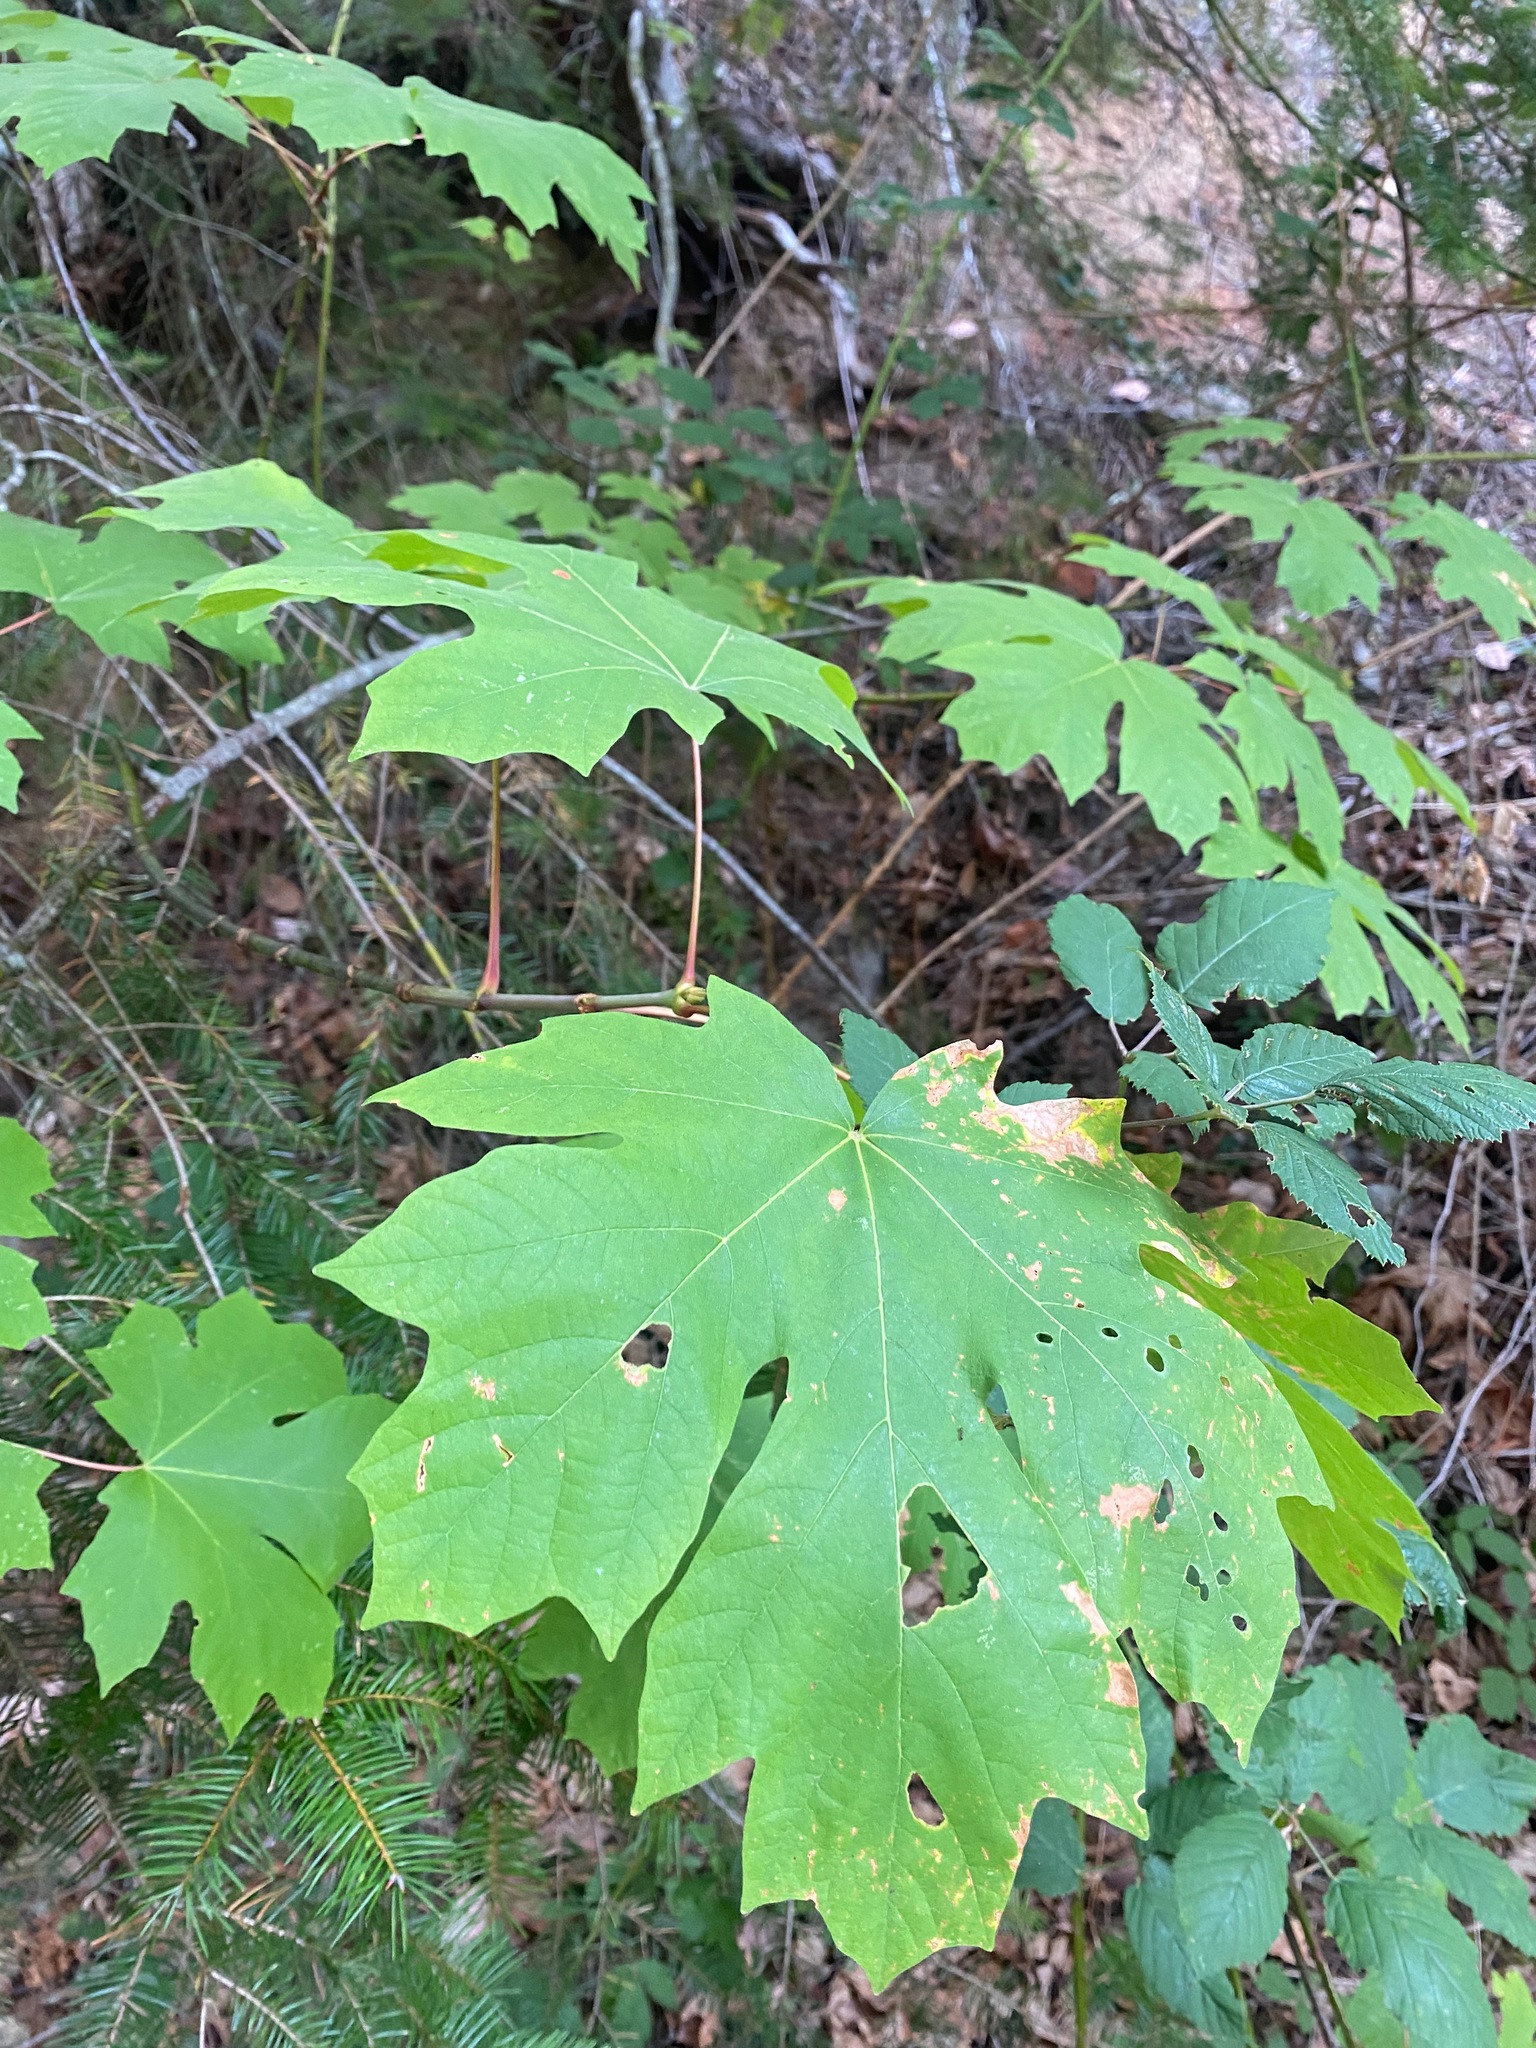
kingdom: Plantae
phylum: Tracheophyta
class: Magnoliopsida
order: Sapindales
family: Sapindaceae
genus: Acer
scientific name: Acer macrophyllum
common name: Oregon maple
